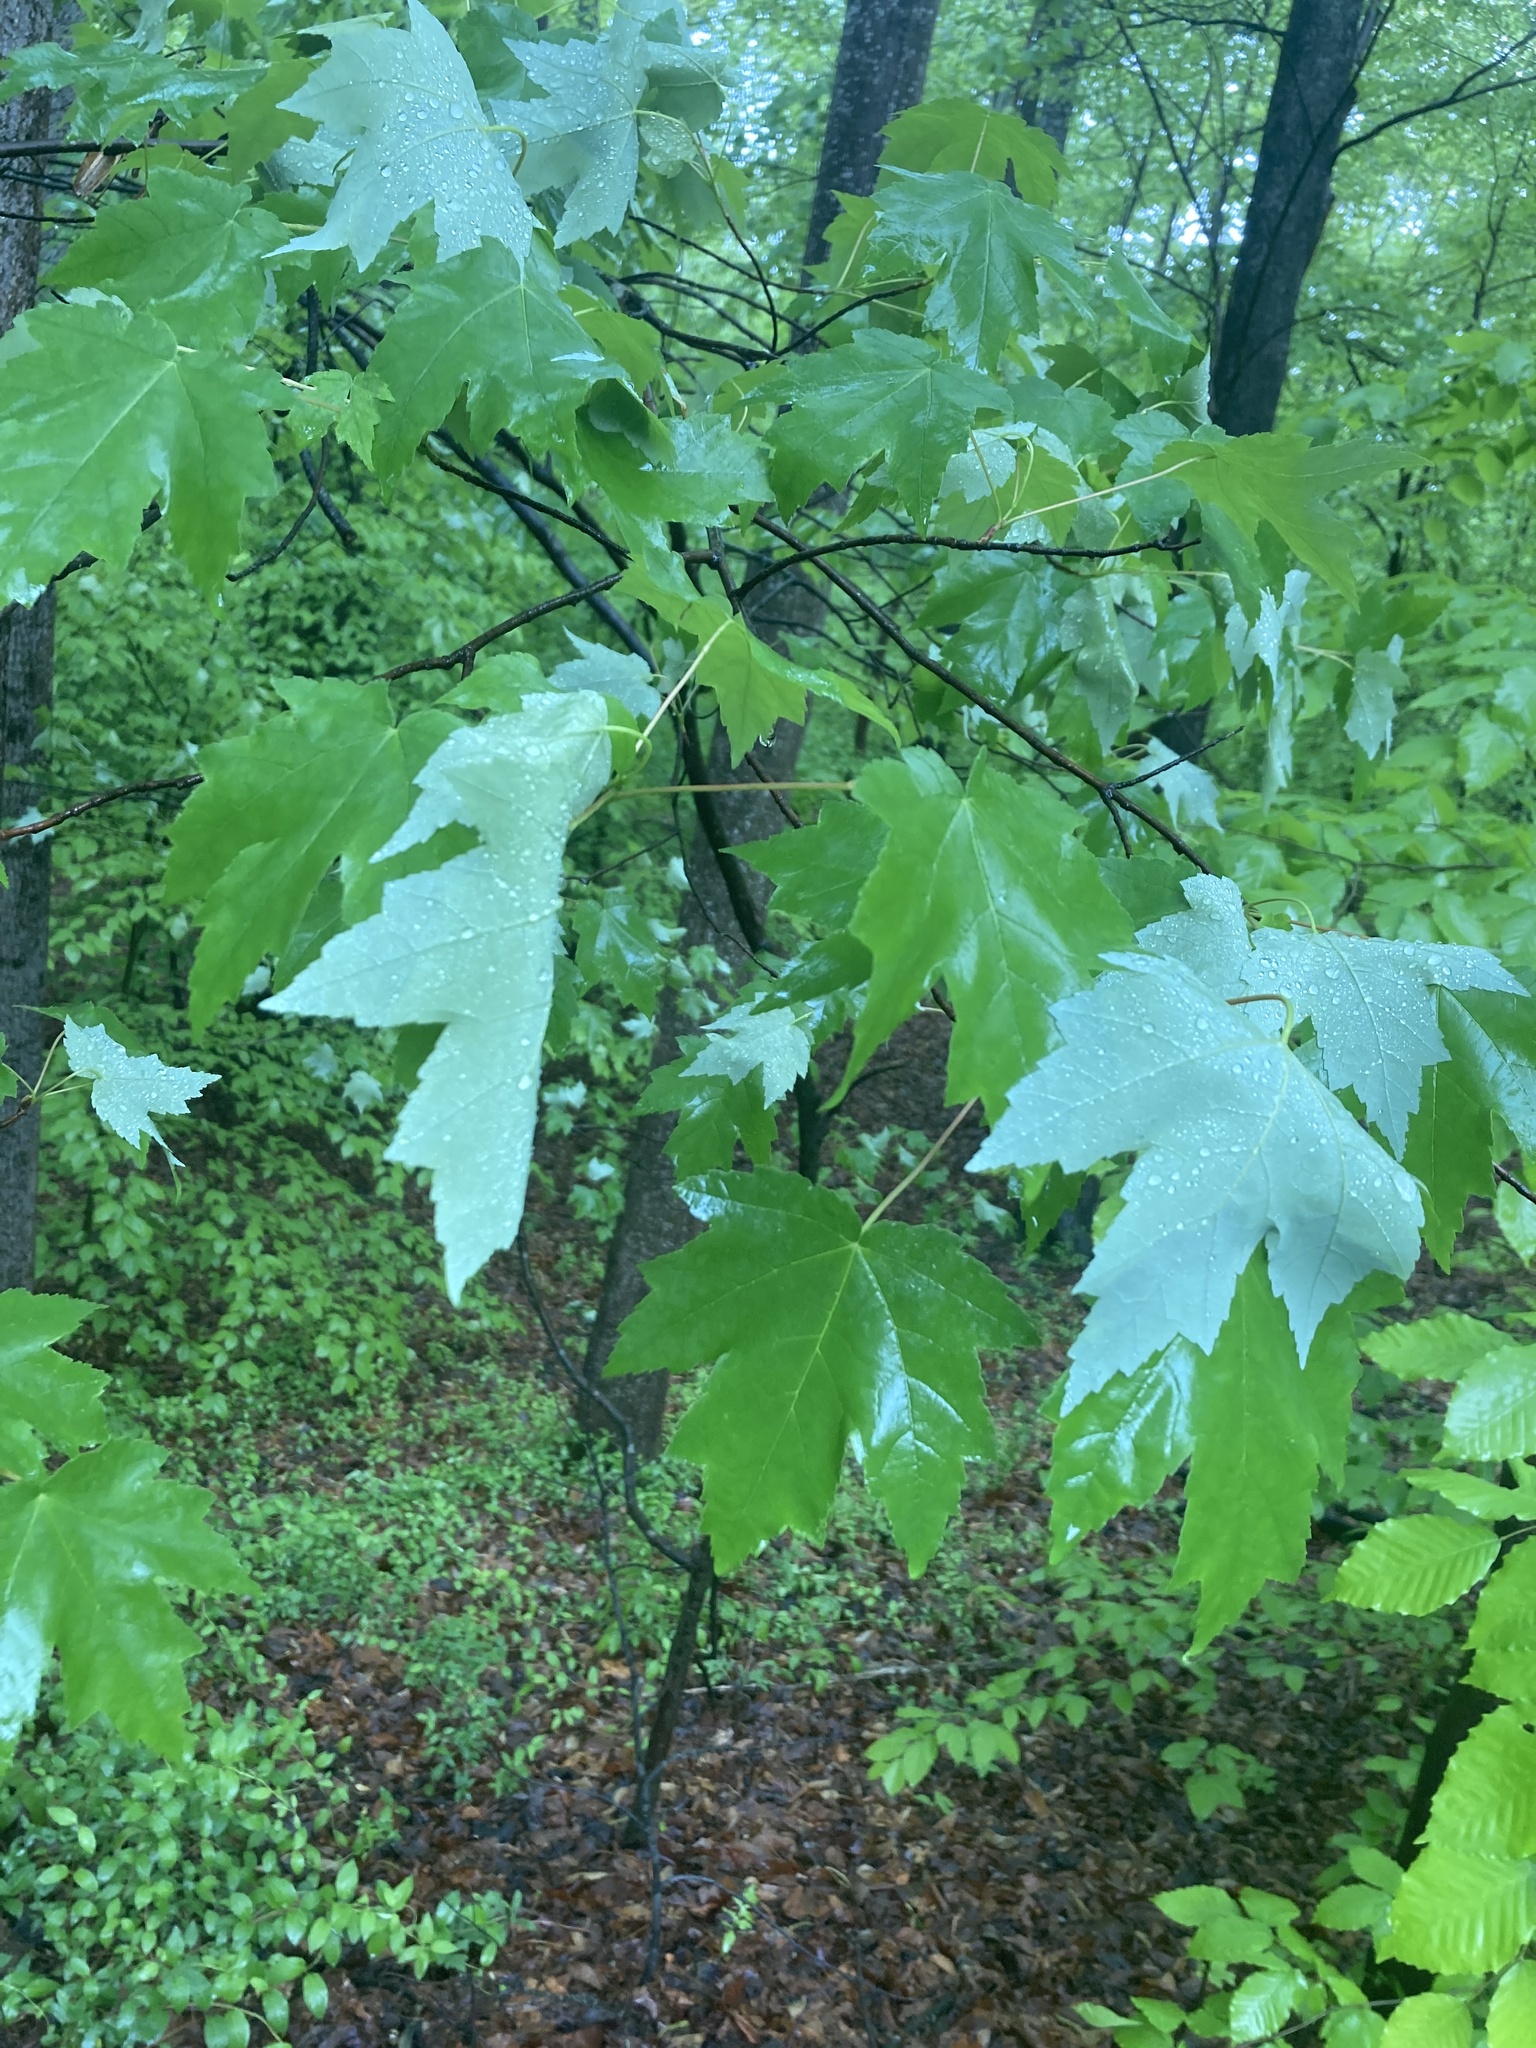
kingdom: Plantae
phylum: Tracheophyta
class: Magnoliopsida
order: Sapindales
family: Sapindaceae
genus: Acer
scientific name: Acer rubrum
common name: Red maple
